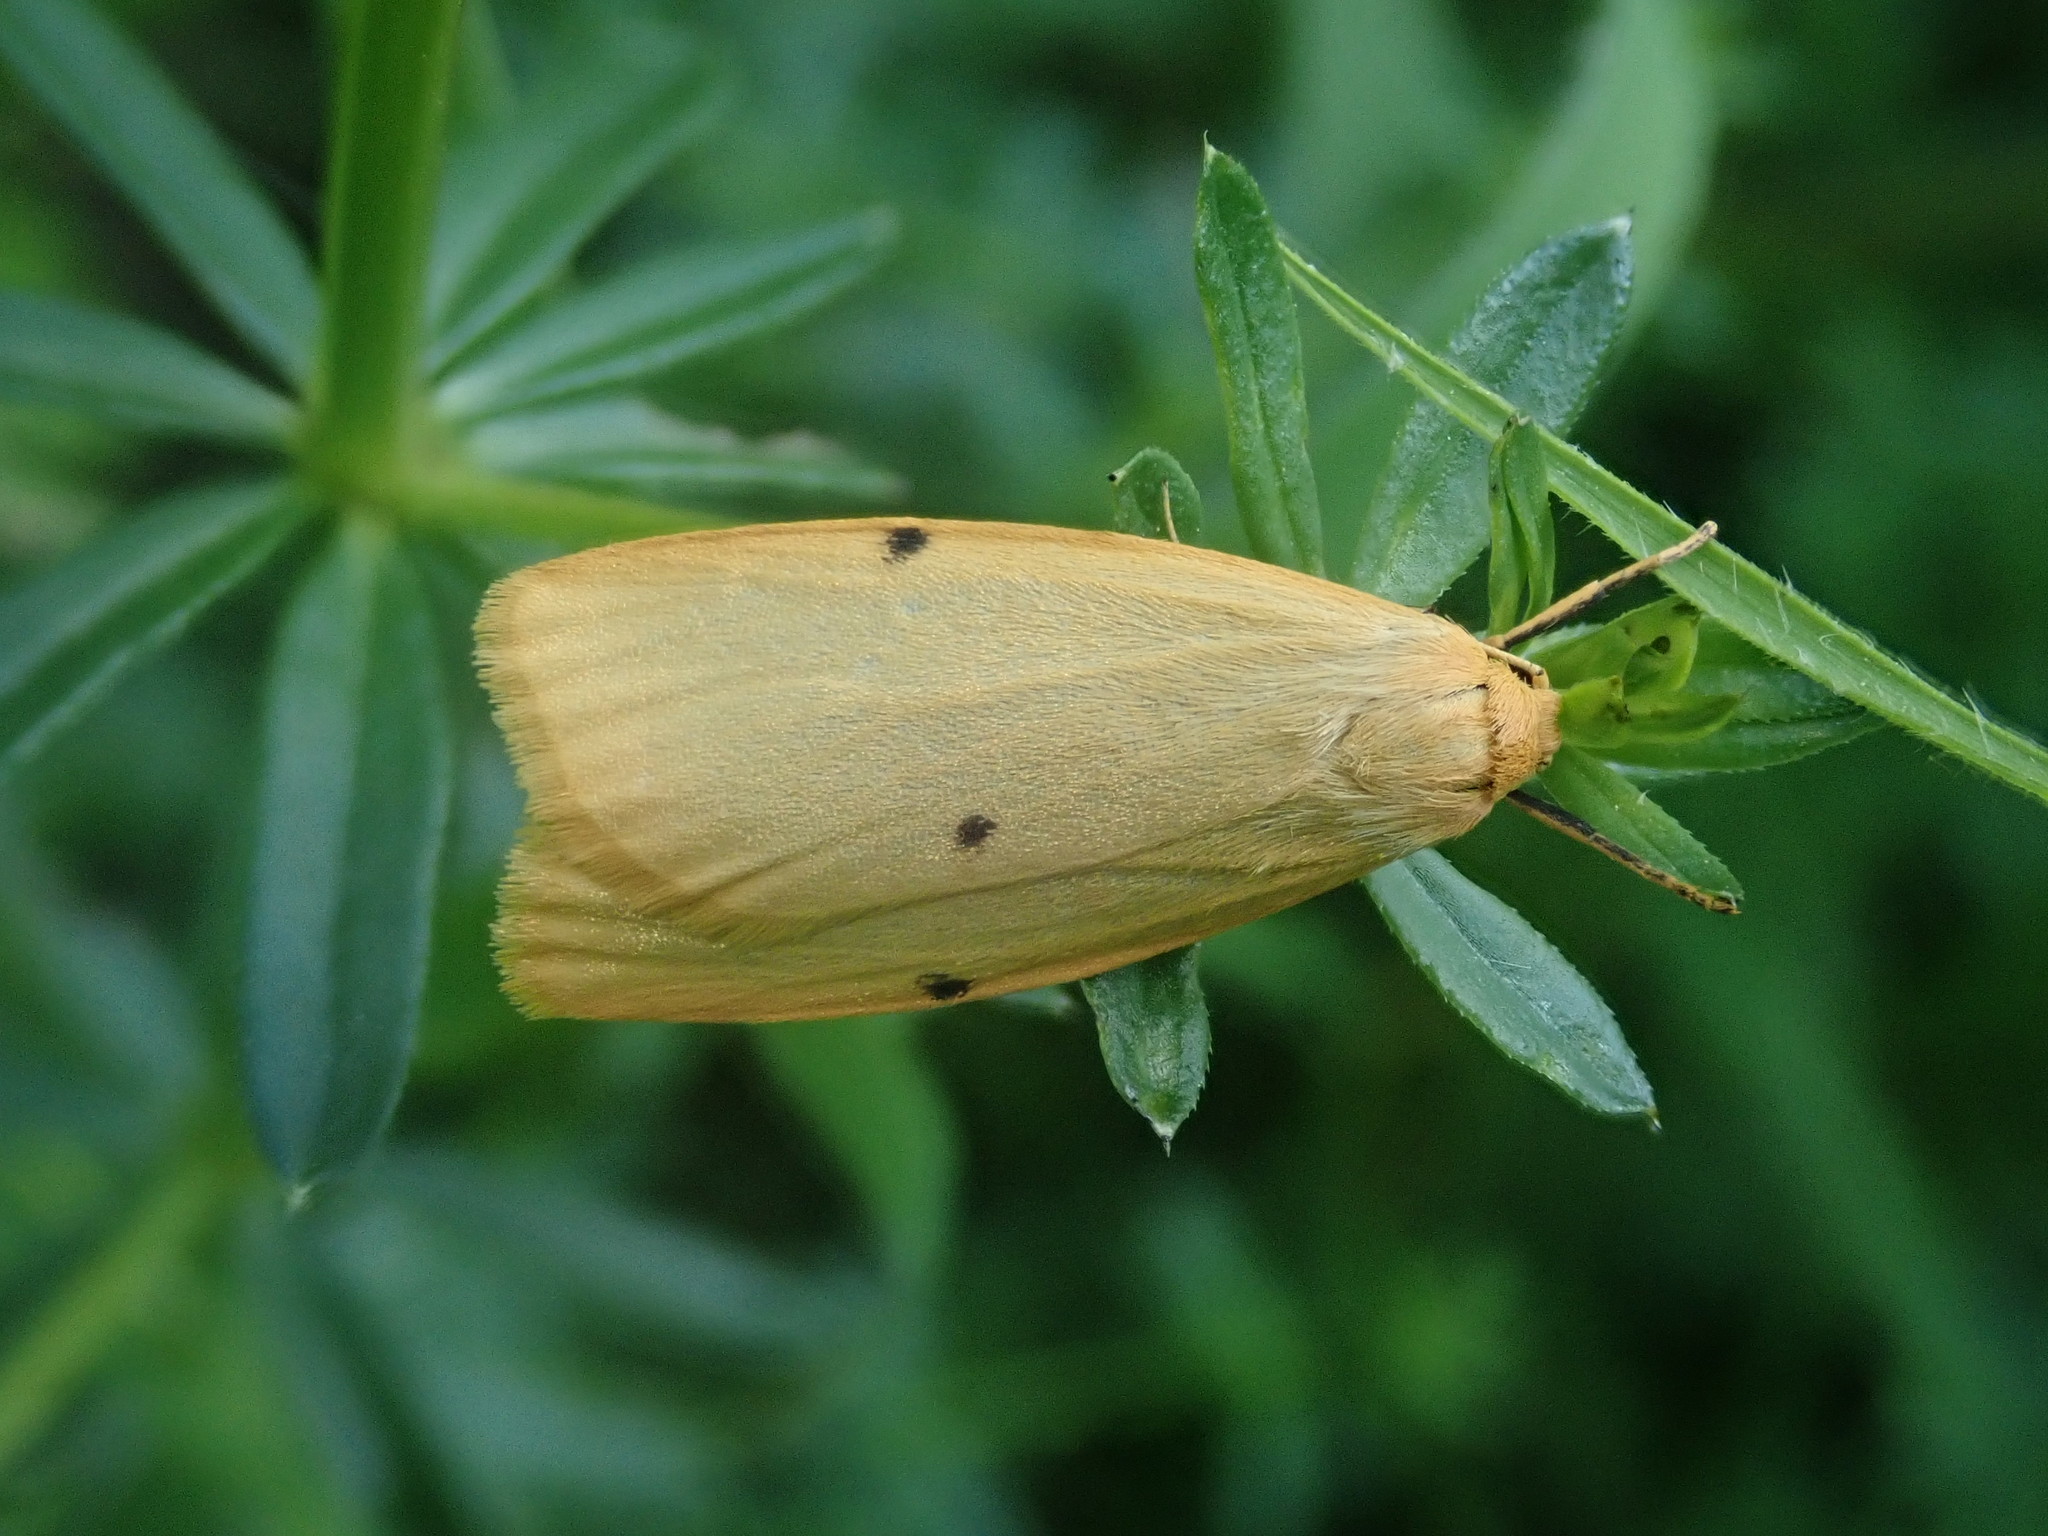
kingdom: Animalia
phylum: Arthropoda
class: Insecta
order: Lepidoptera
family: Erebidae
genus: Cybosia
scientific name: Cybosia mesomella
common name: Four-dotted footman
